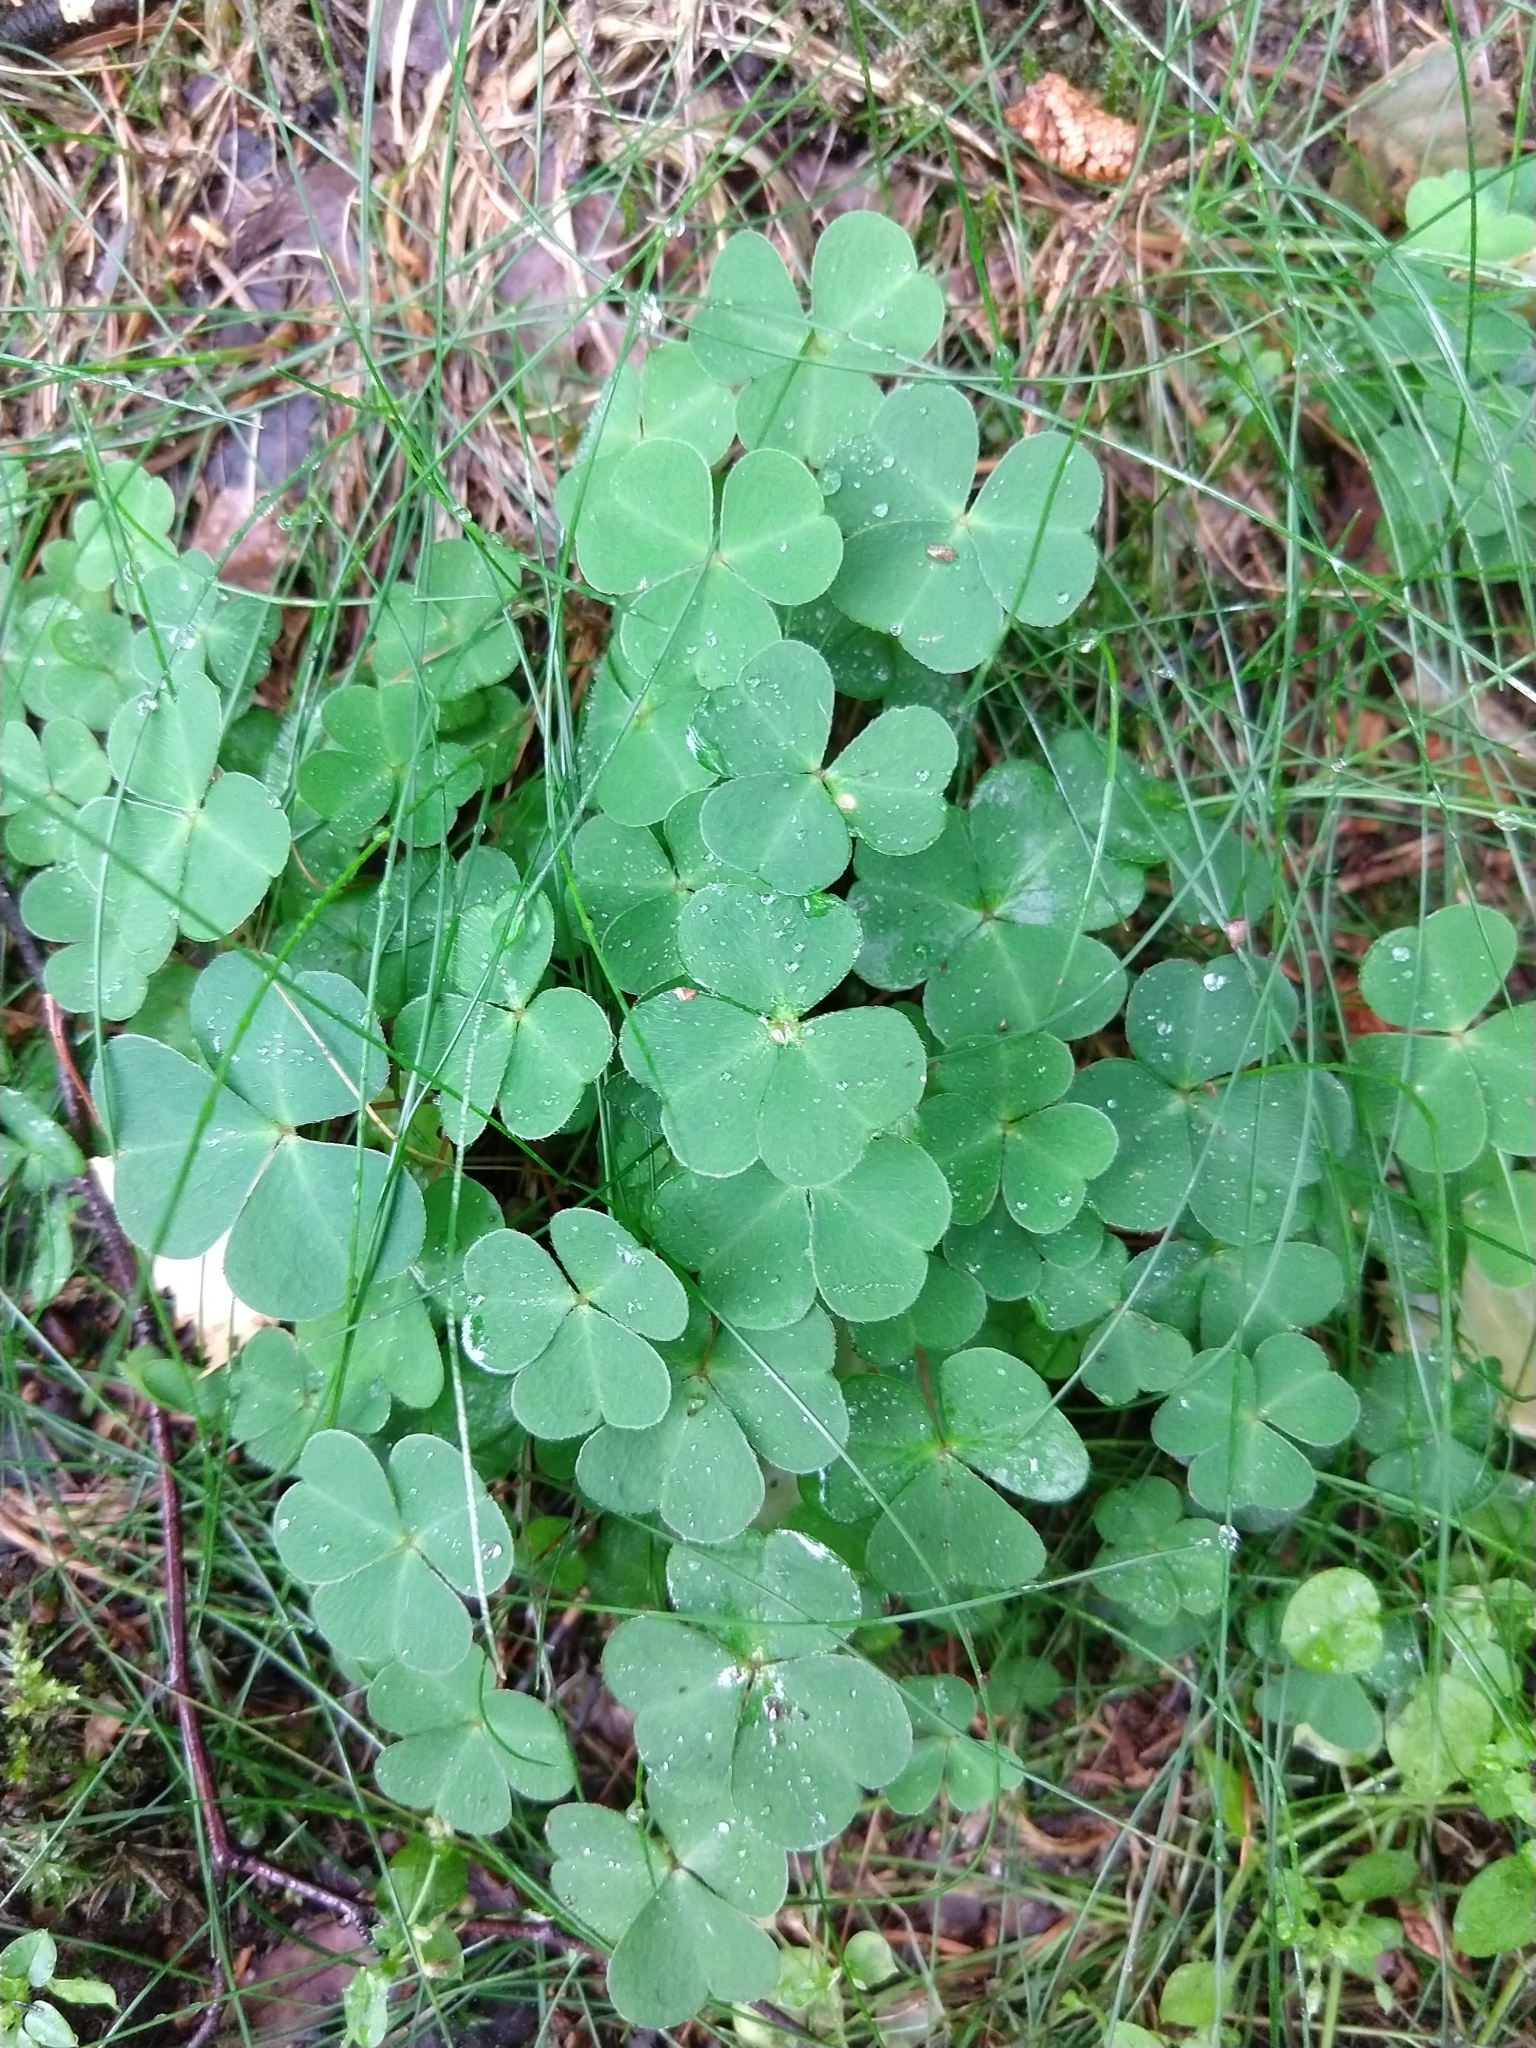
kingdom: Plantae
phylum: Tracheophyta
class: Magnoliopsida
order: Oxalidales
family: Oxalidaceae
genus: Oxalis
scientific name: Oxalis acetosella
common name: Wood-sorrel
